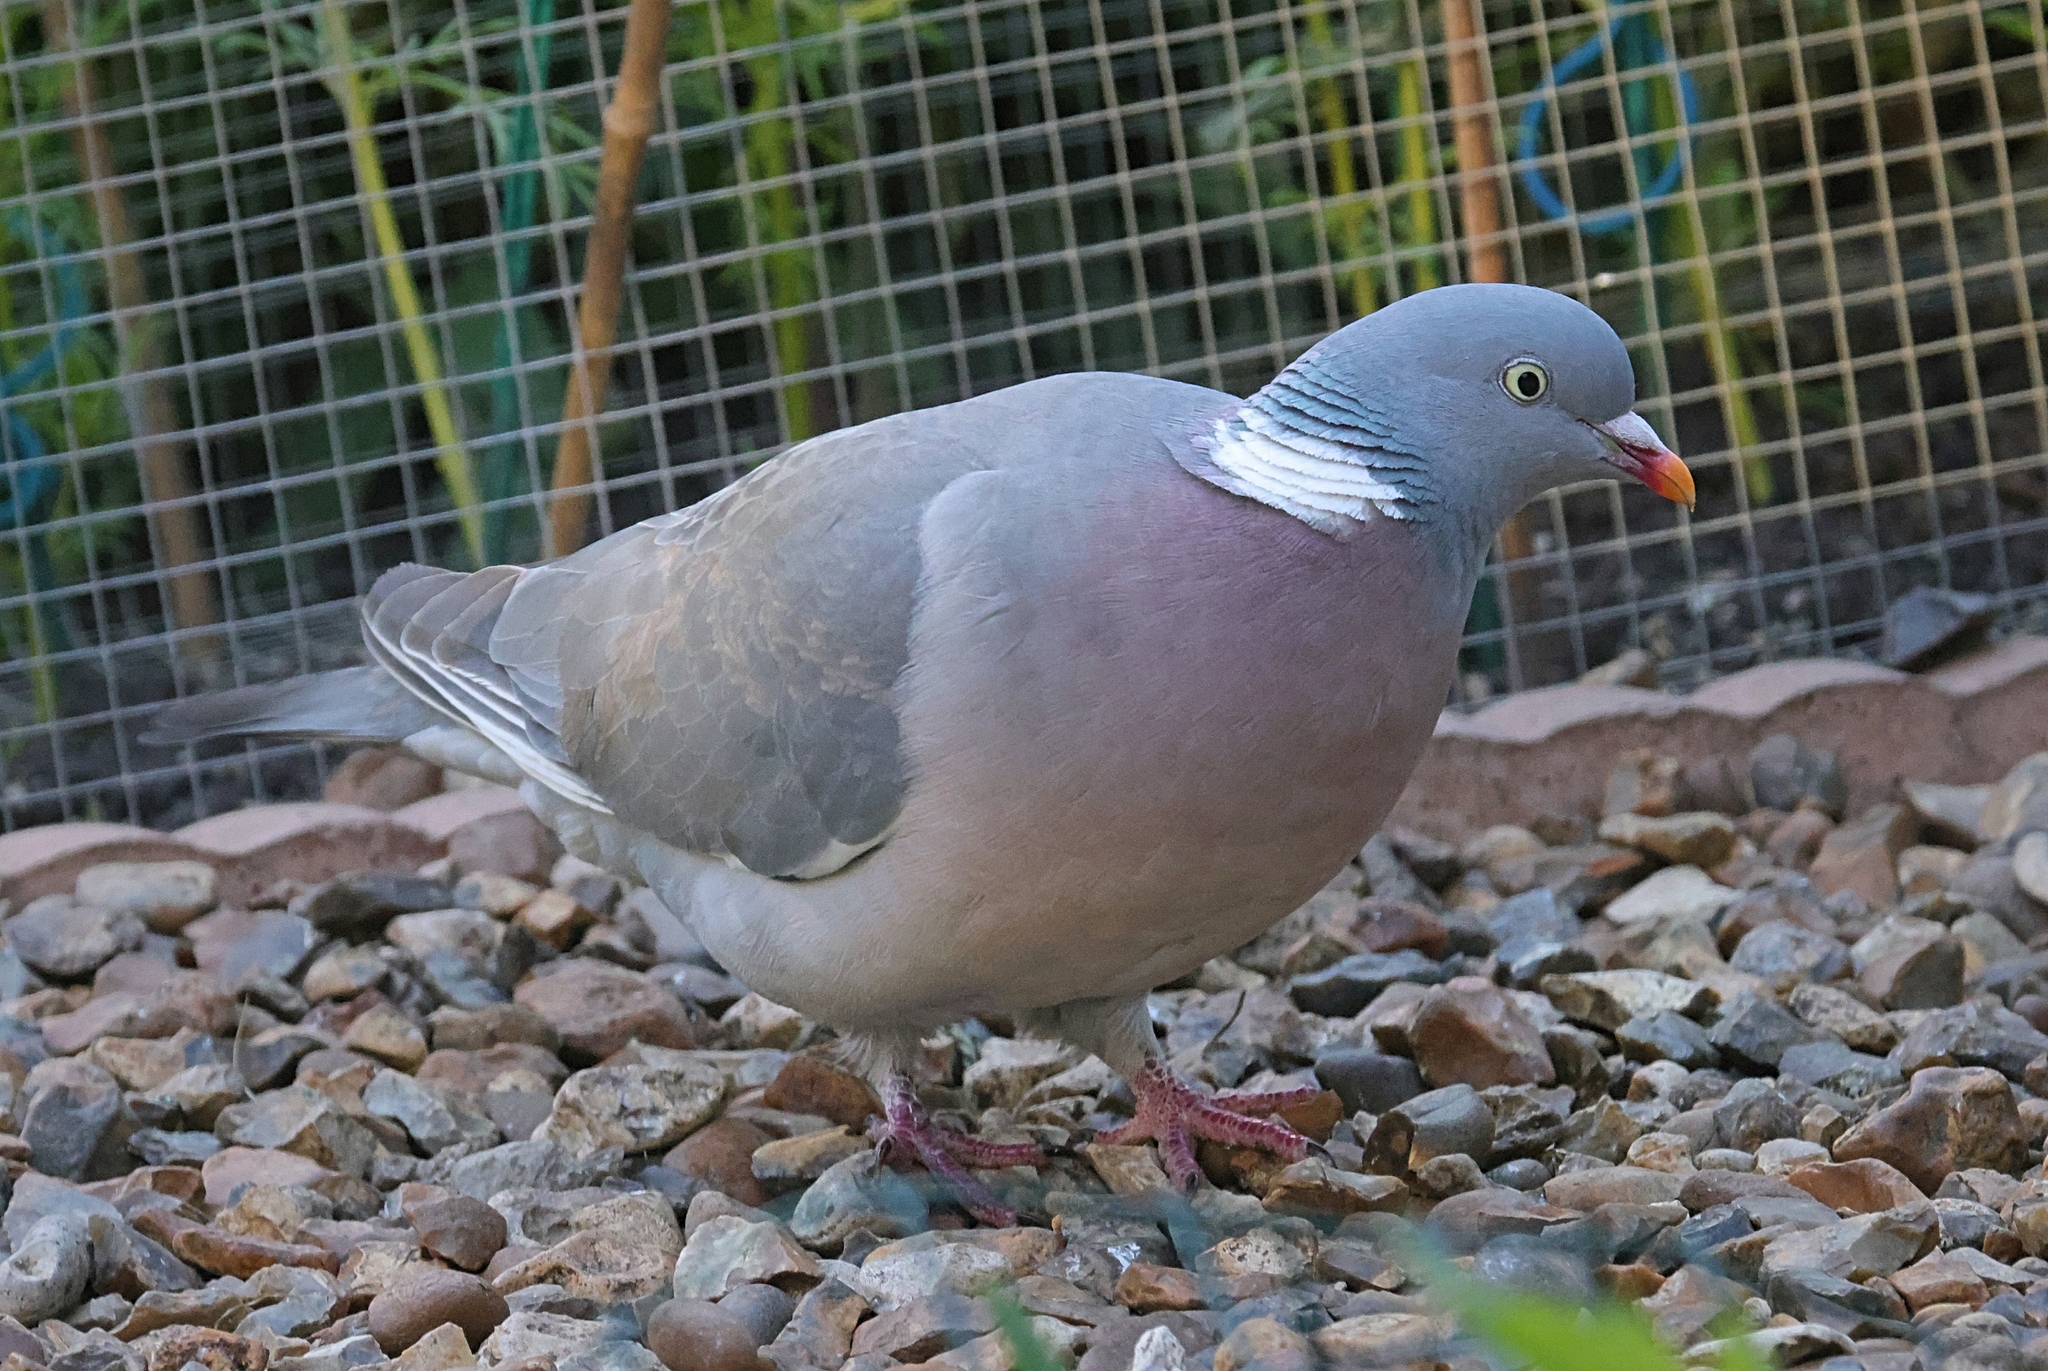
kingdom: Animalia
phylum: Chordata
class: Aves
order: Columbiformes
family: Columbidae
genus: Columba
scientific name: Columba palumbus
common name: Common wood pigeon
